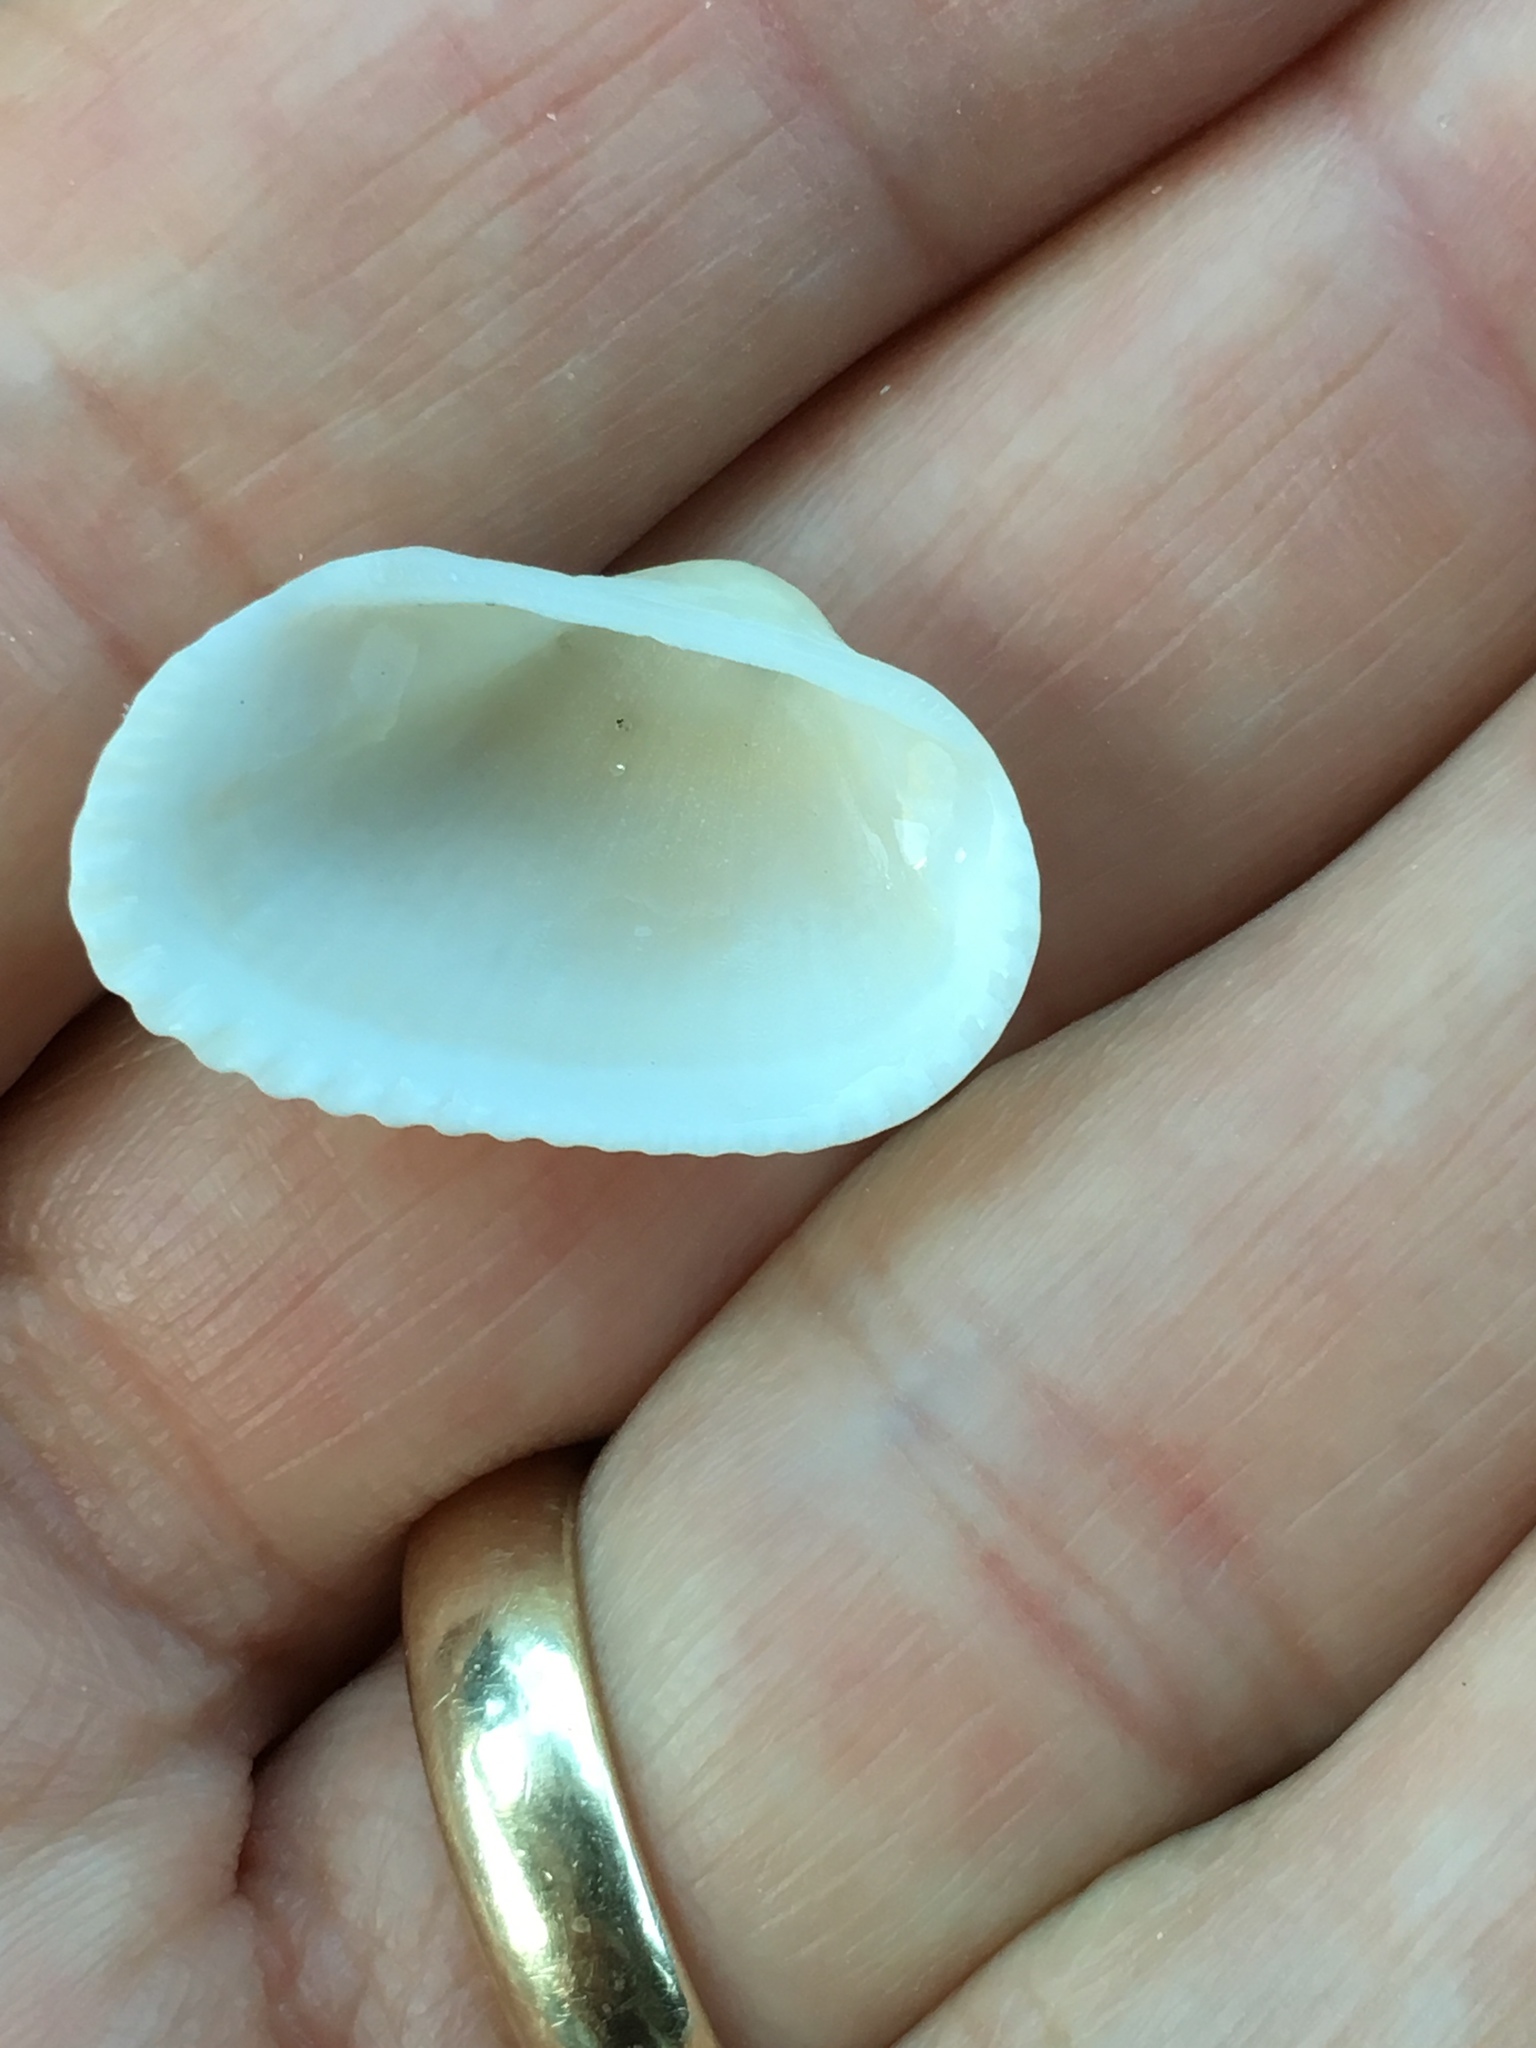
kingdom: Animalia
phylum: Mollusca
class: Bivalvia
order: Arcida
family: Arcidae
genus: Anadara
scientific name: Anadara transversa
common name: Transverse ark
